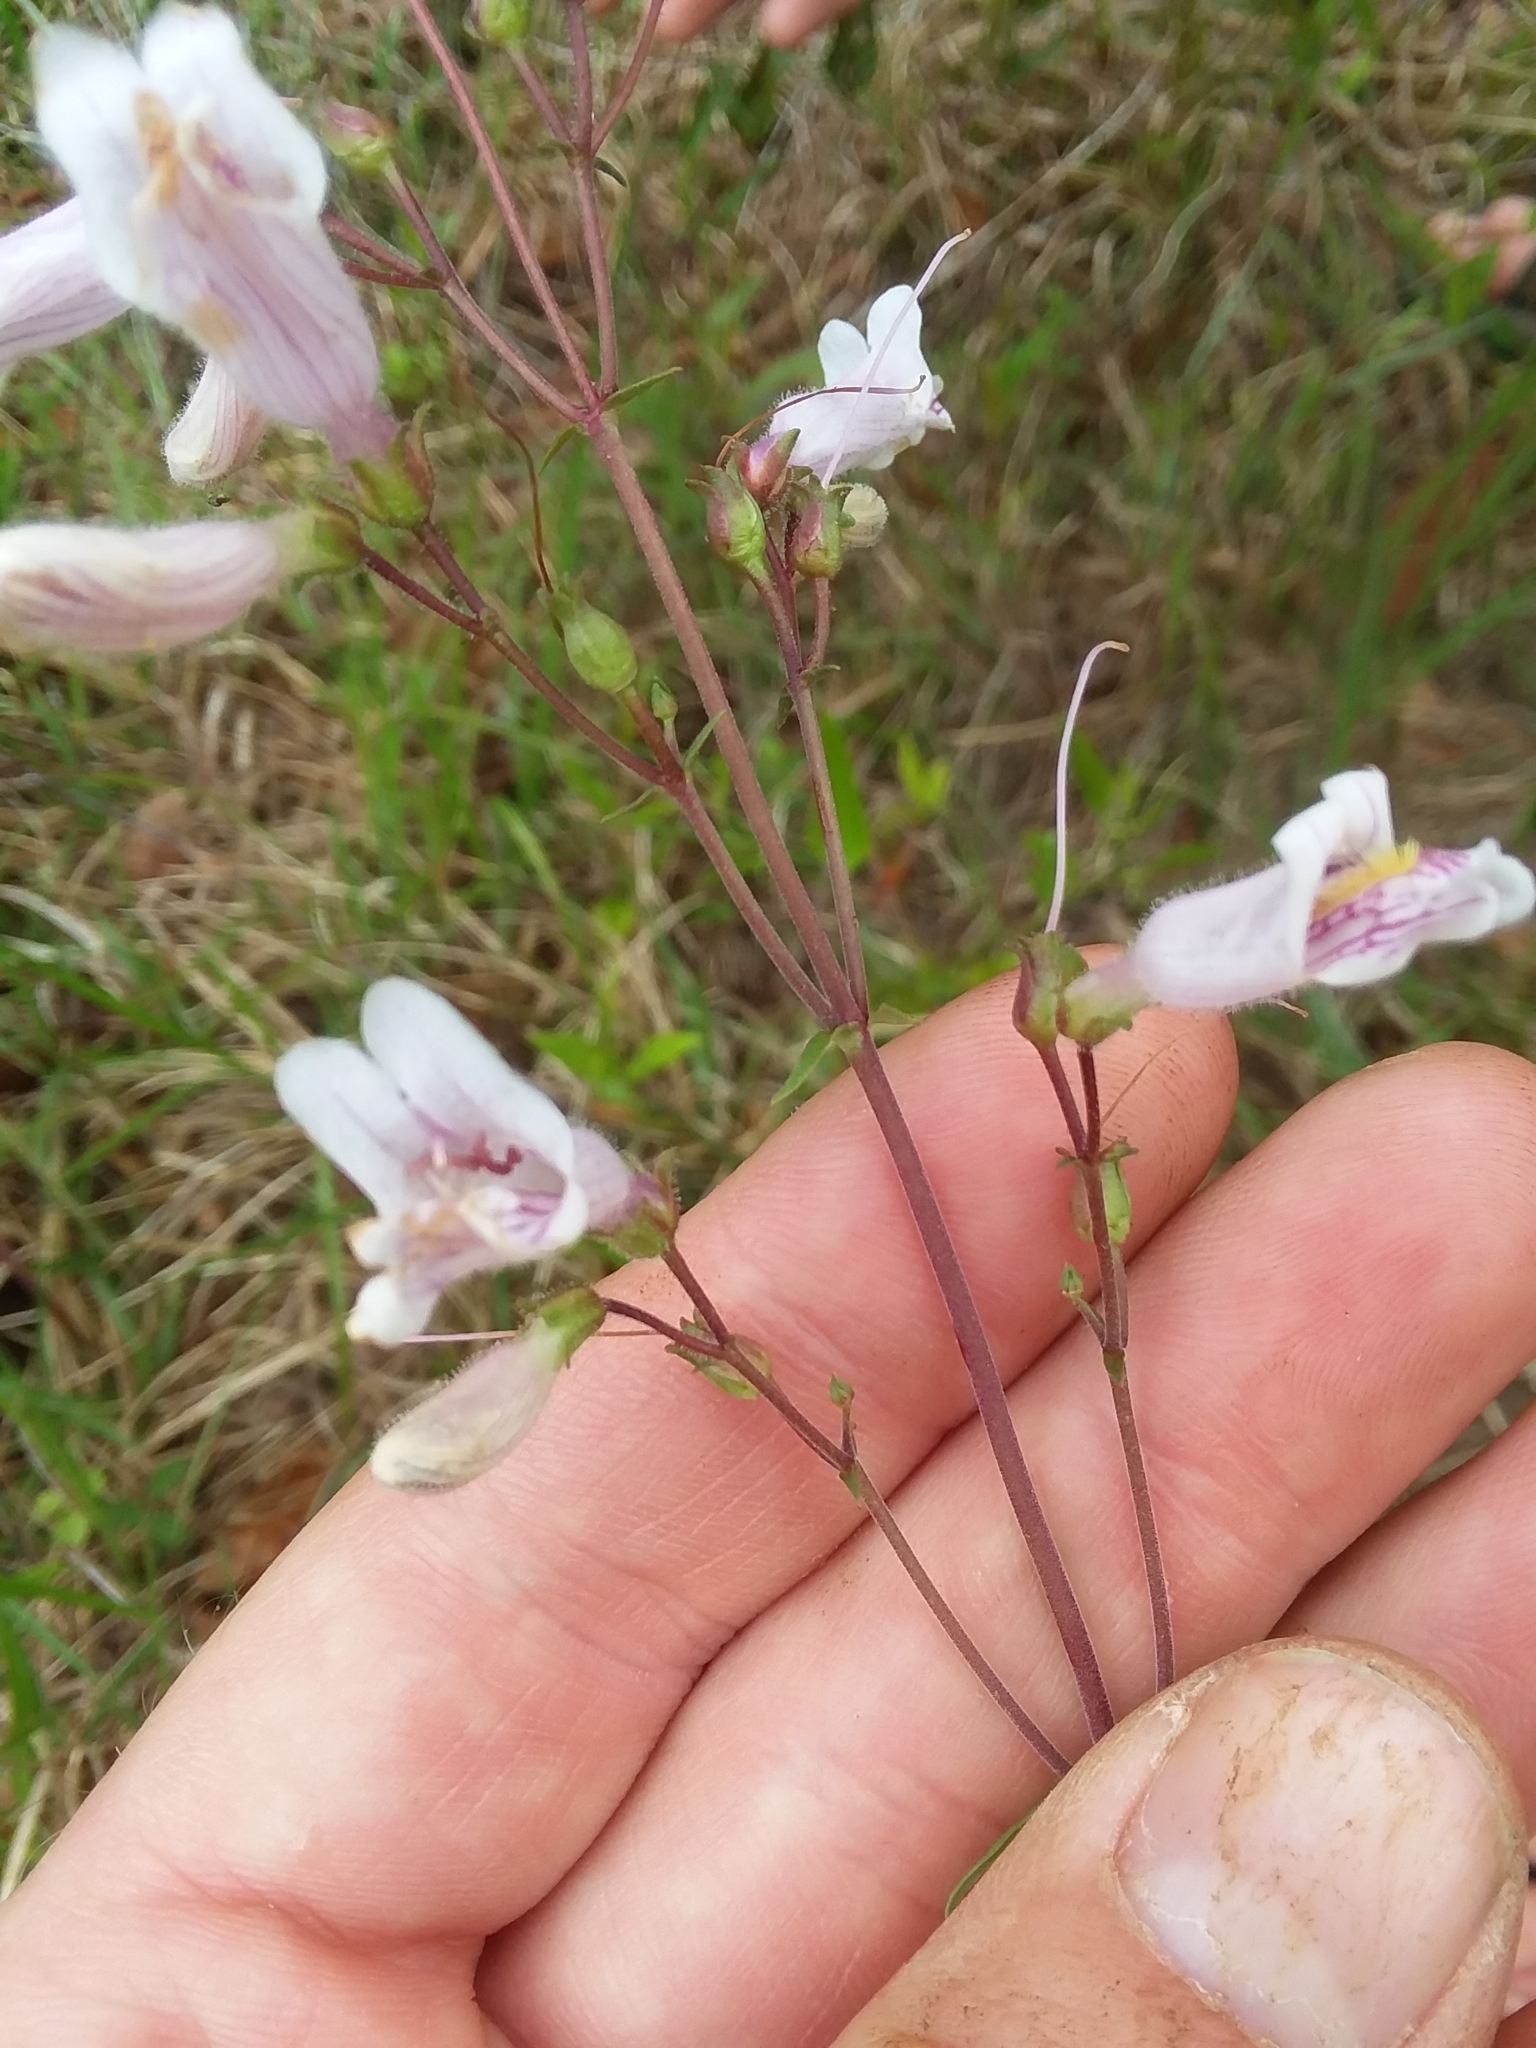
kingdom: Plantae
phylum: Tracheophyta
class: Magnoliopsida
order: Lamiales
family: Plantaginaceae
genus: Penstemon
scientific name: Penstemon laxiflorus
